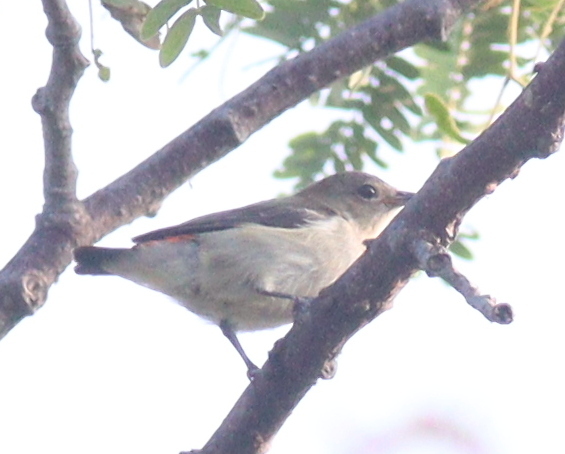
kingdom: Animalia
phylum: Chordata
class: Aves
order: Passeriformes
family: Dicaeidae
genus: Dicaeum
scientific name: Dicaeum trochileum
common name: Scarlet-headed flowerpecker
